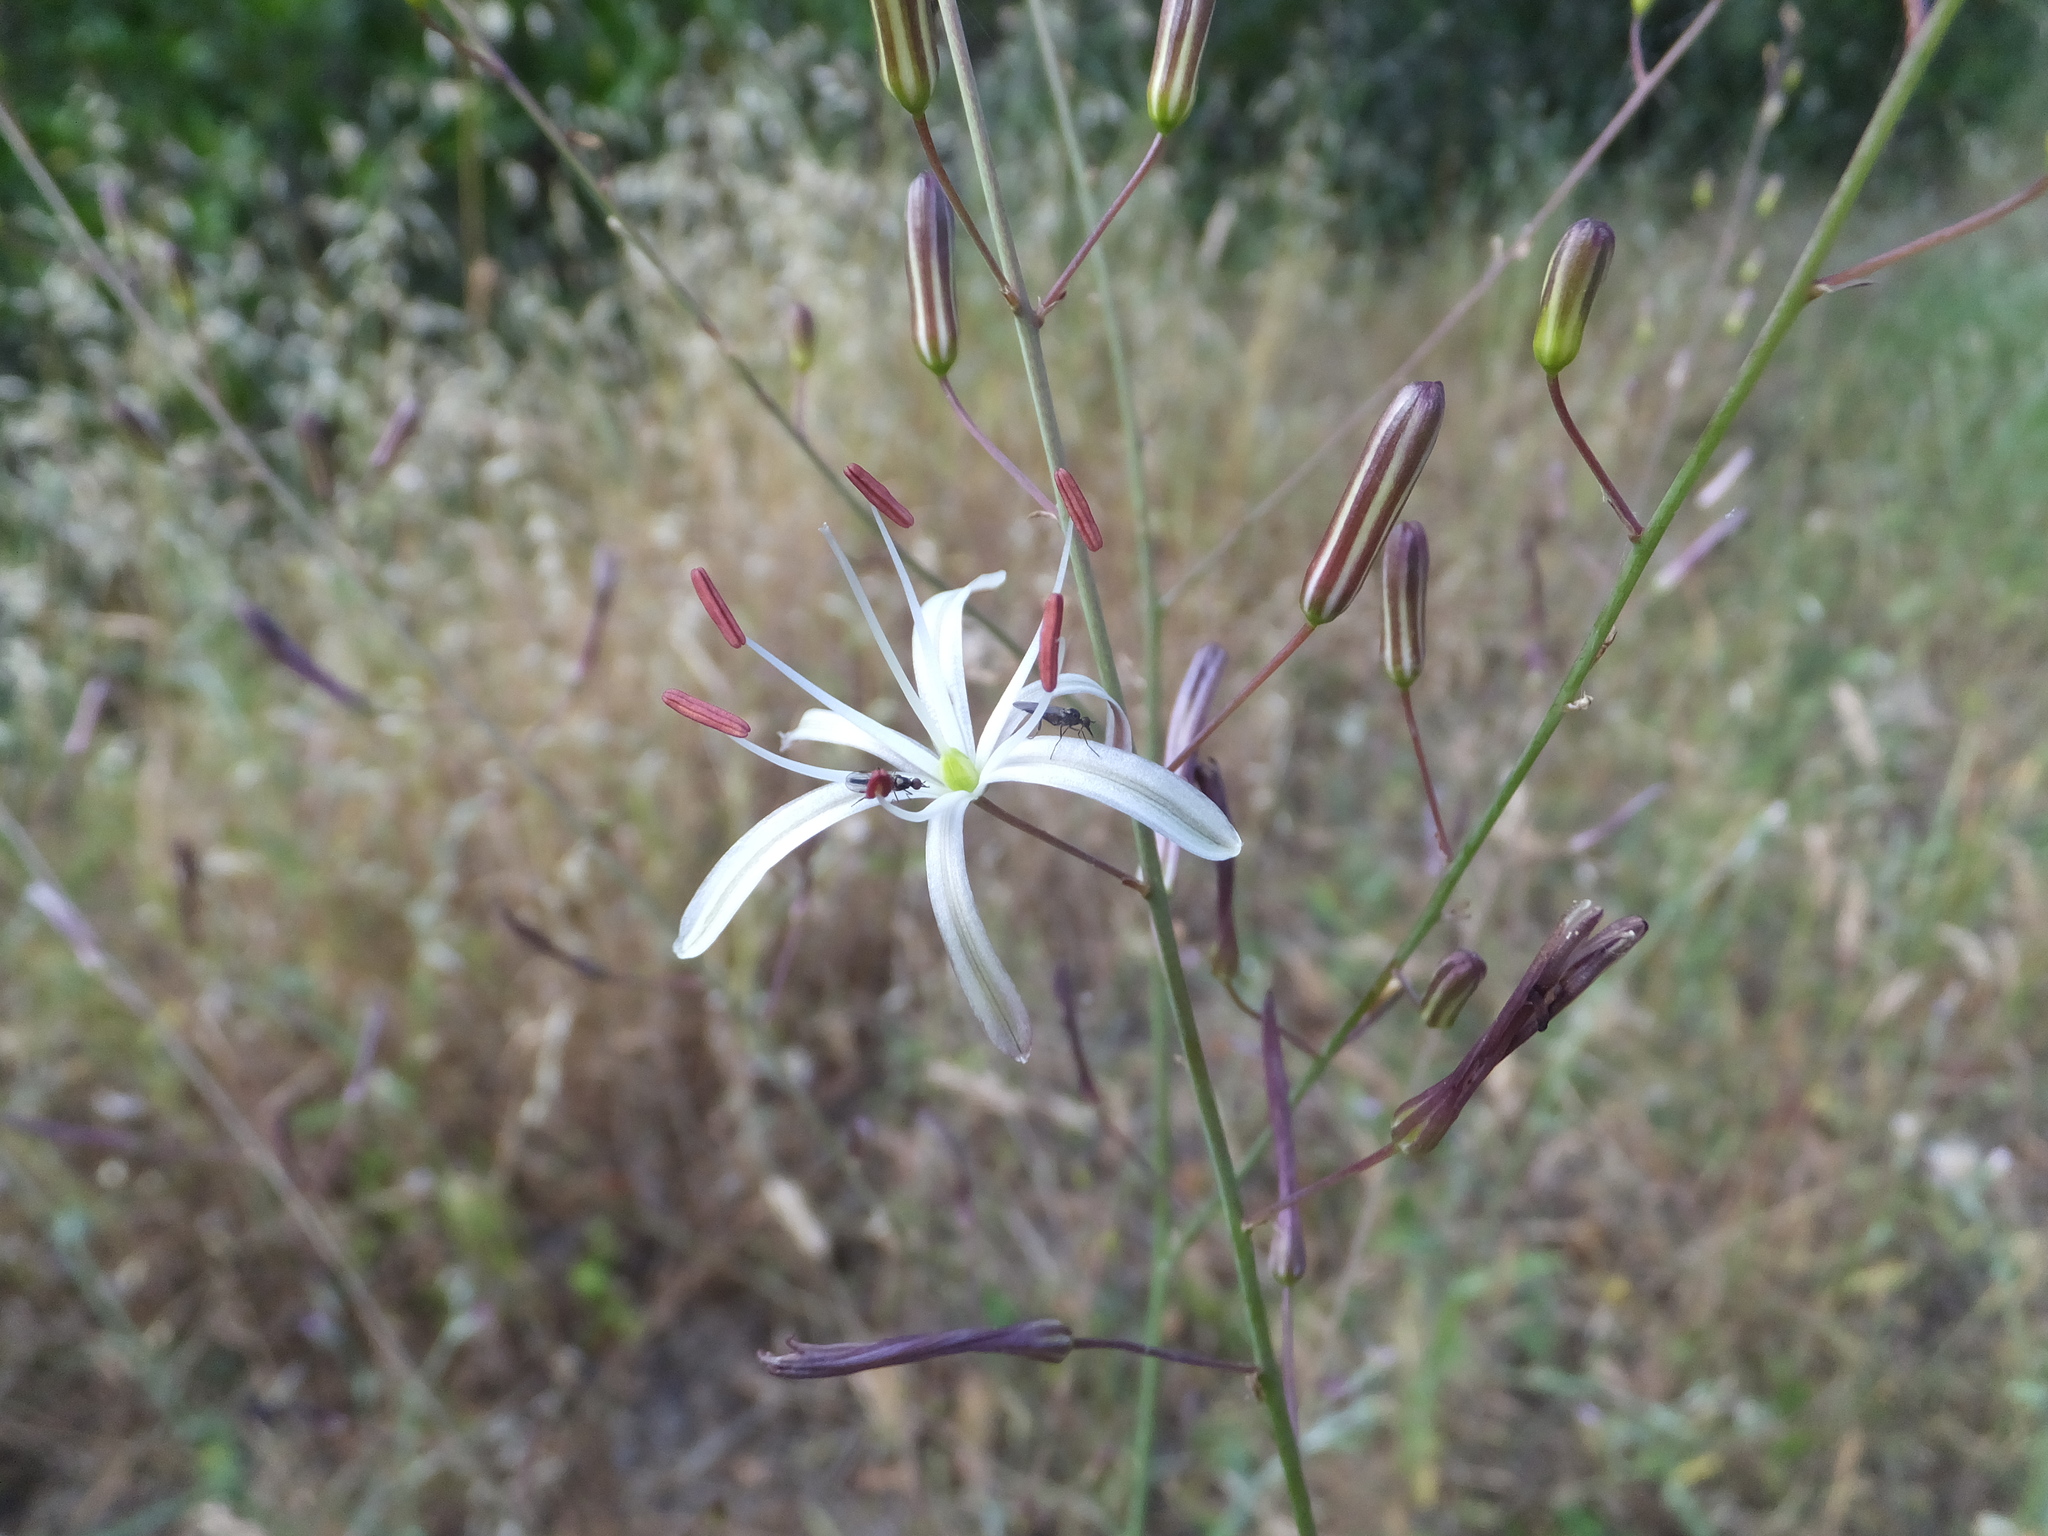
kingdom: Plantae
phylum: Tracheophyta
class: Liliopsida
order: Asparagales
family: Asparagaceae
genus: Chlorogalum
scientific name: Chlorogalum pomeridianum
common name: Amole
